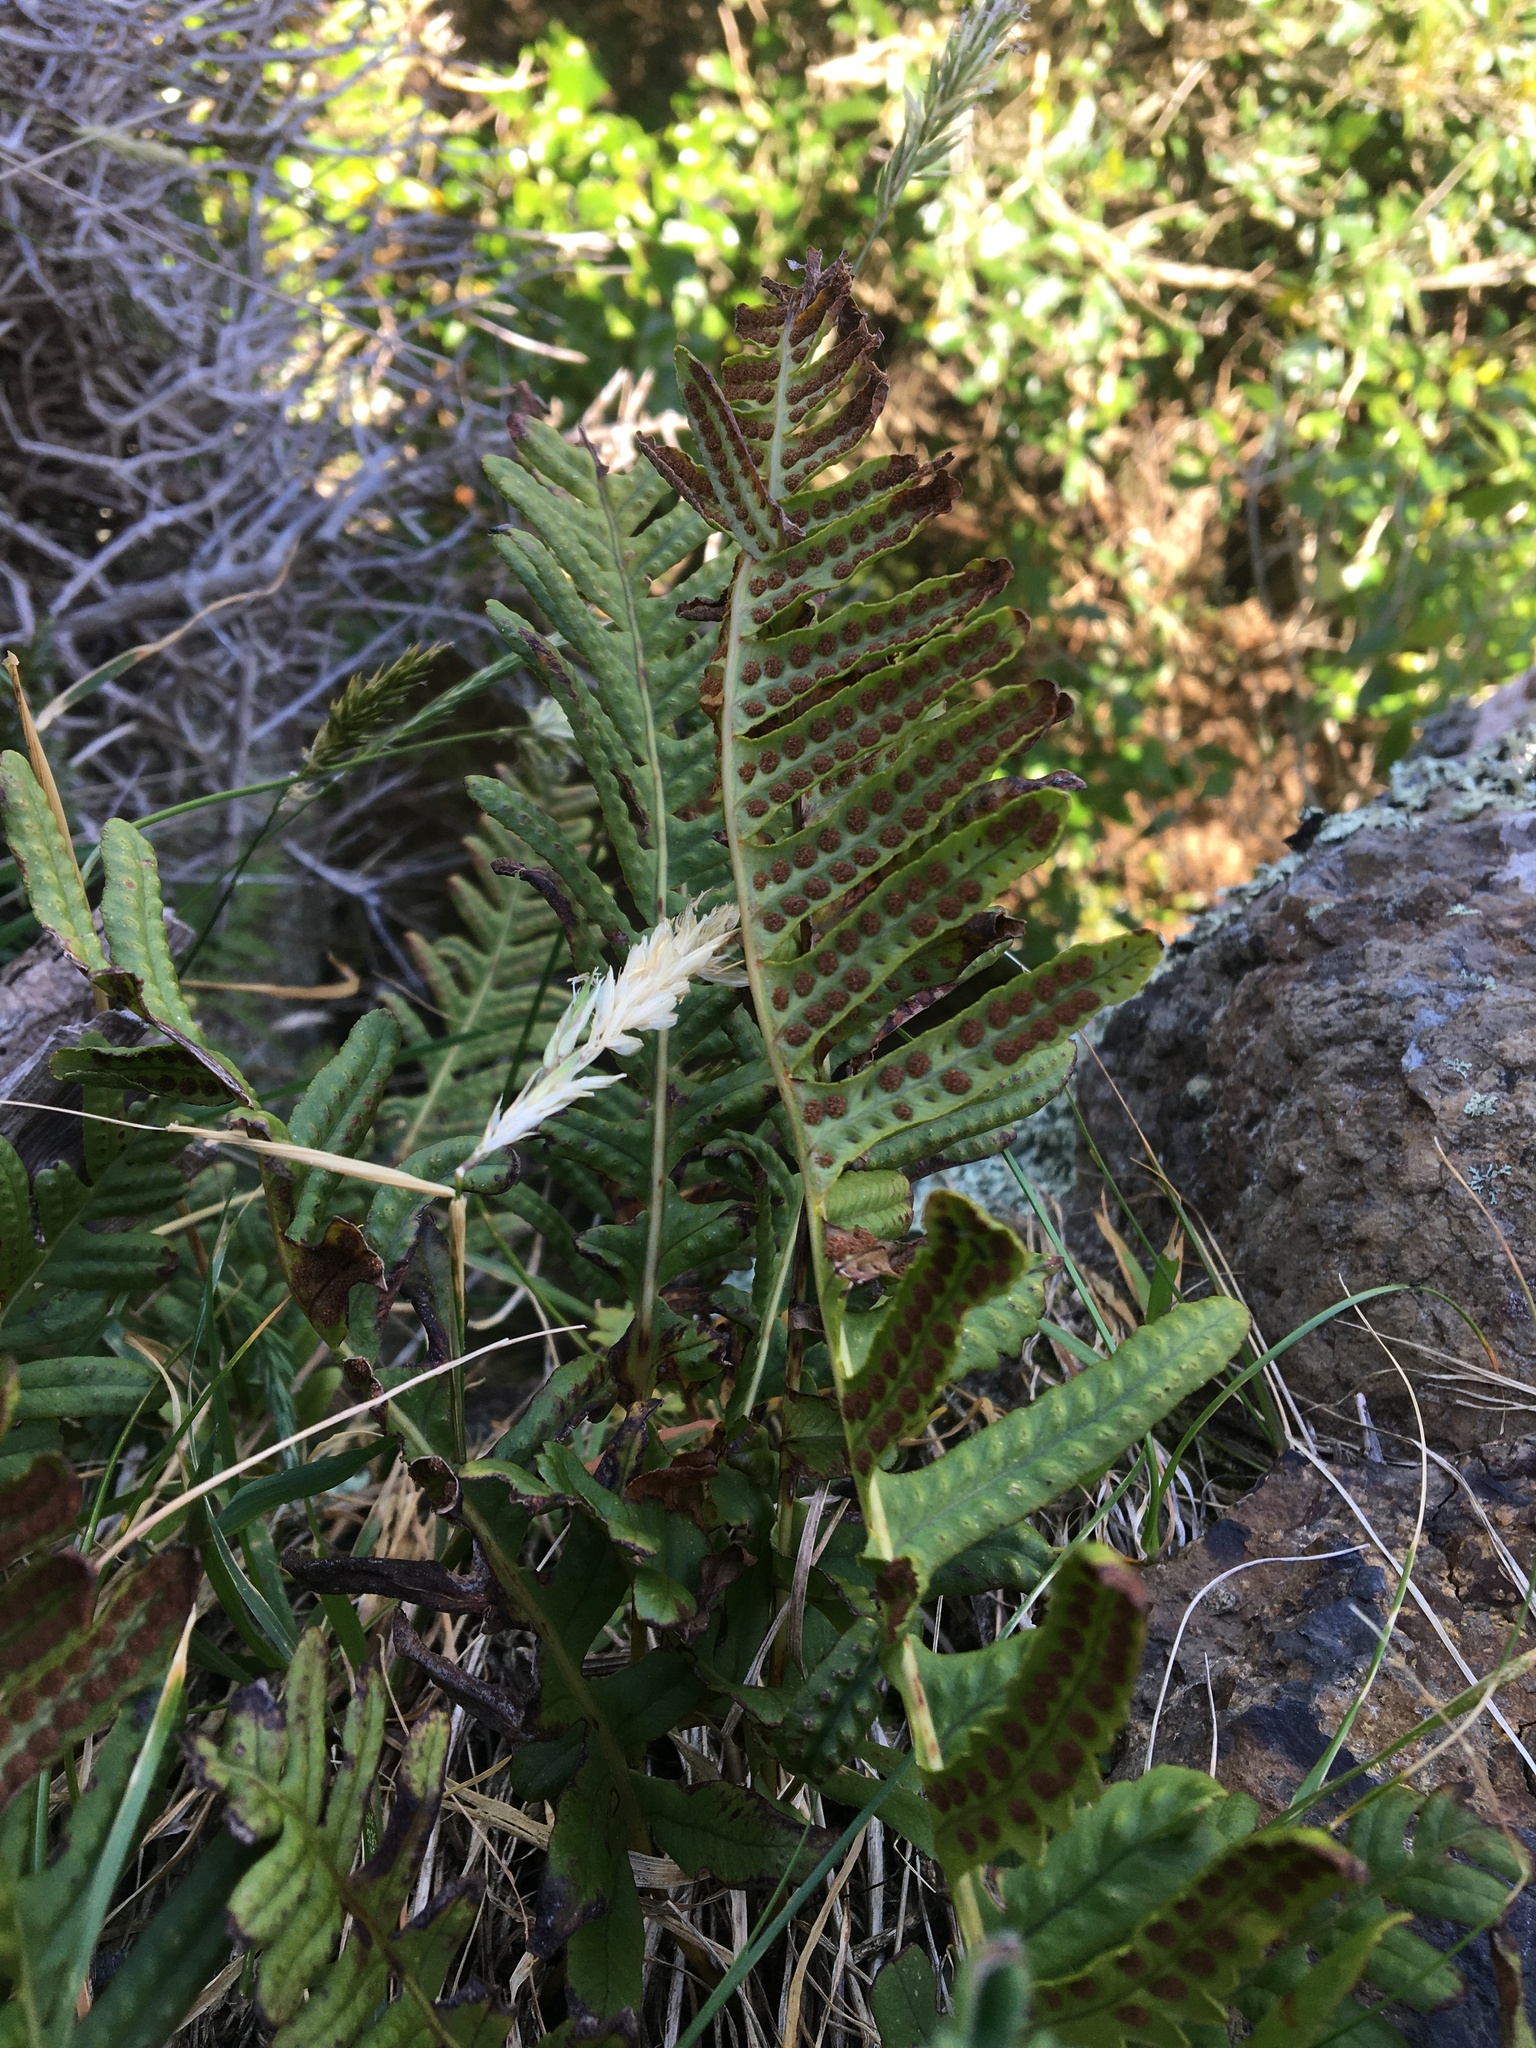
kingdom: Plantae
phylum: Tracheophyta
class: Polypodiopsida
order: Polypodiales
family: Polypodiaceae
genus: Polypodium
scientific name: Polypodium vulgare
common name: Common polypody
